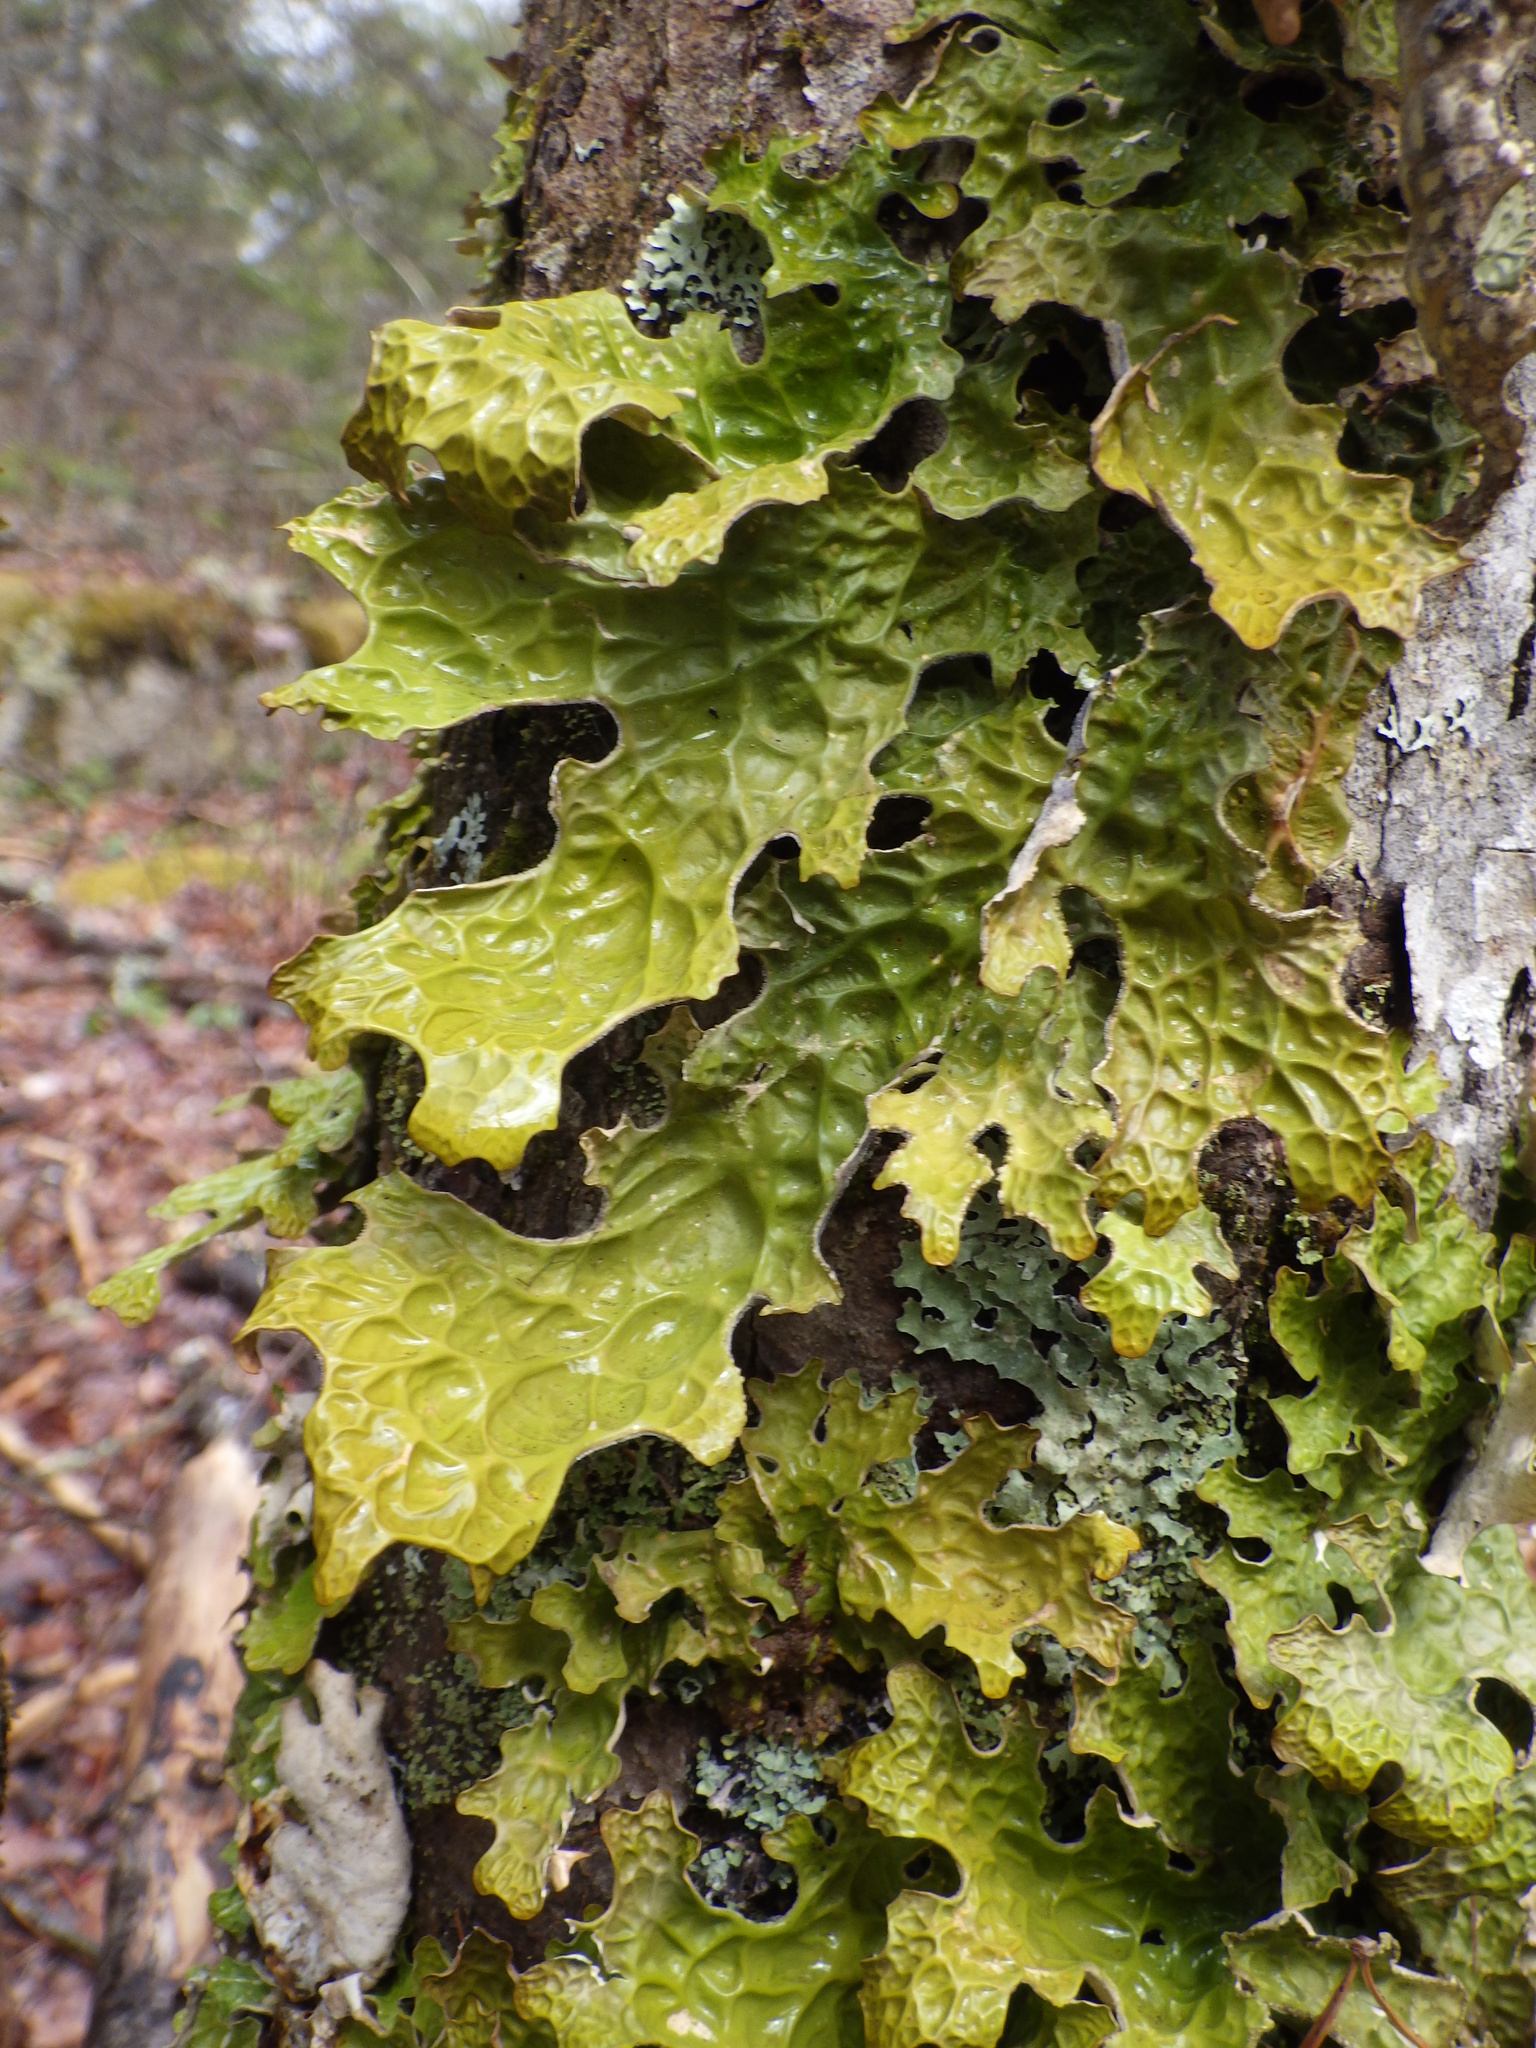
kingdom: Fungi
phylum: Ascomycota
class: Lecanoromycetes
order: Peltigerales
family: Lobariaceae
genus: Lobaria
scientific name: Lobaria pulmonaria
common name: Lungwort
